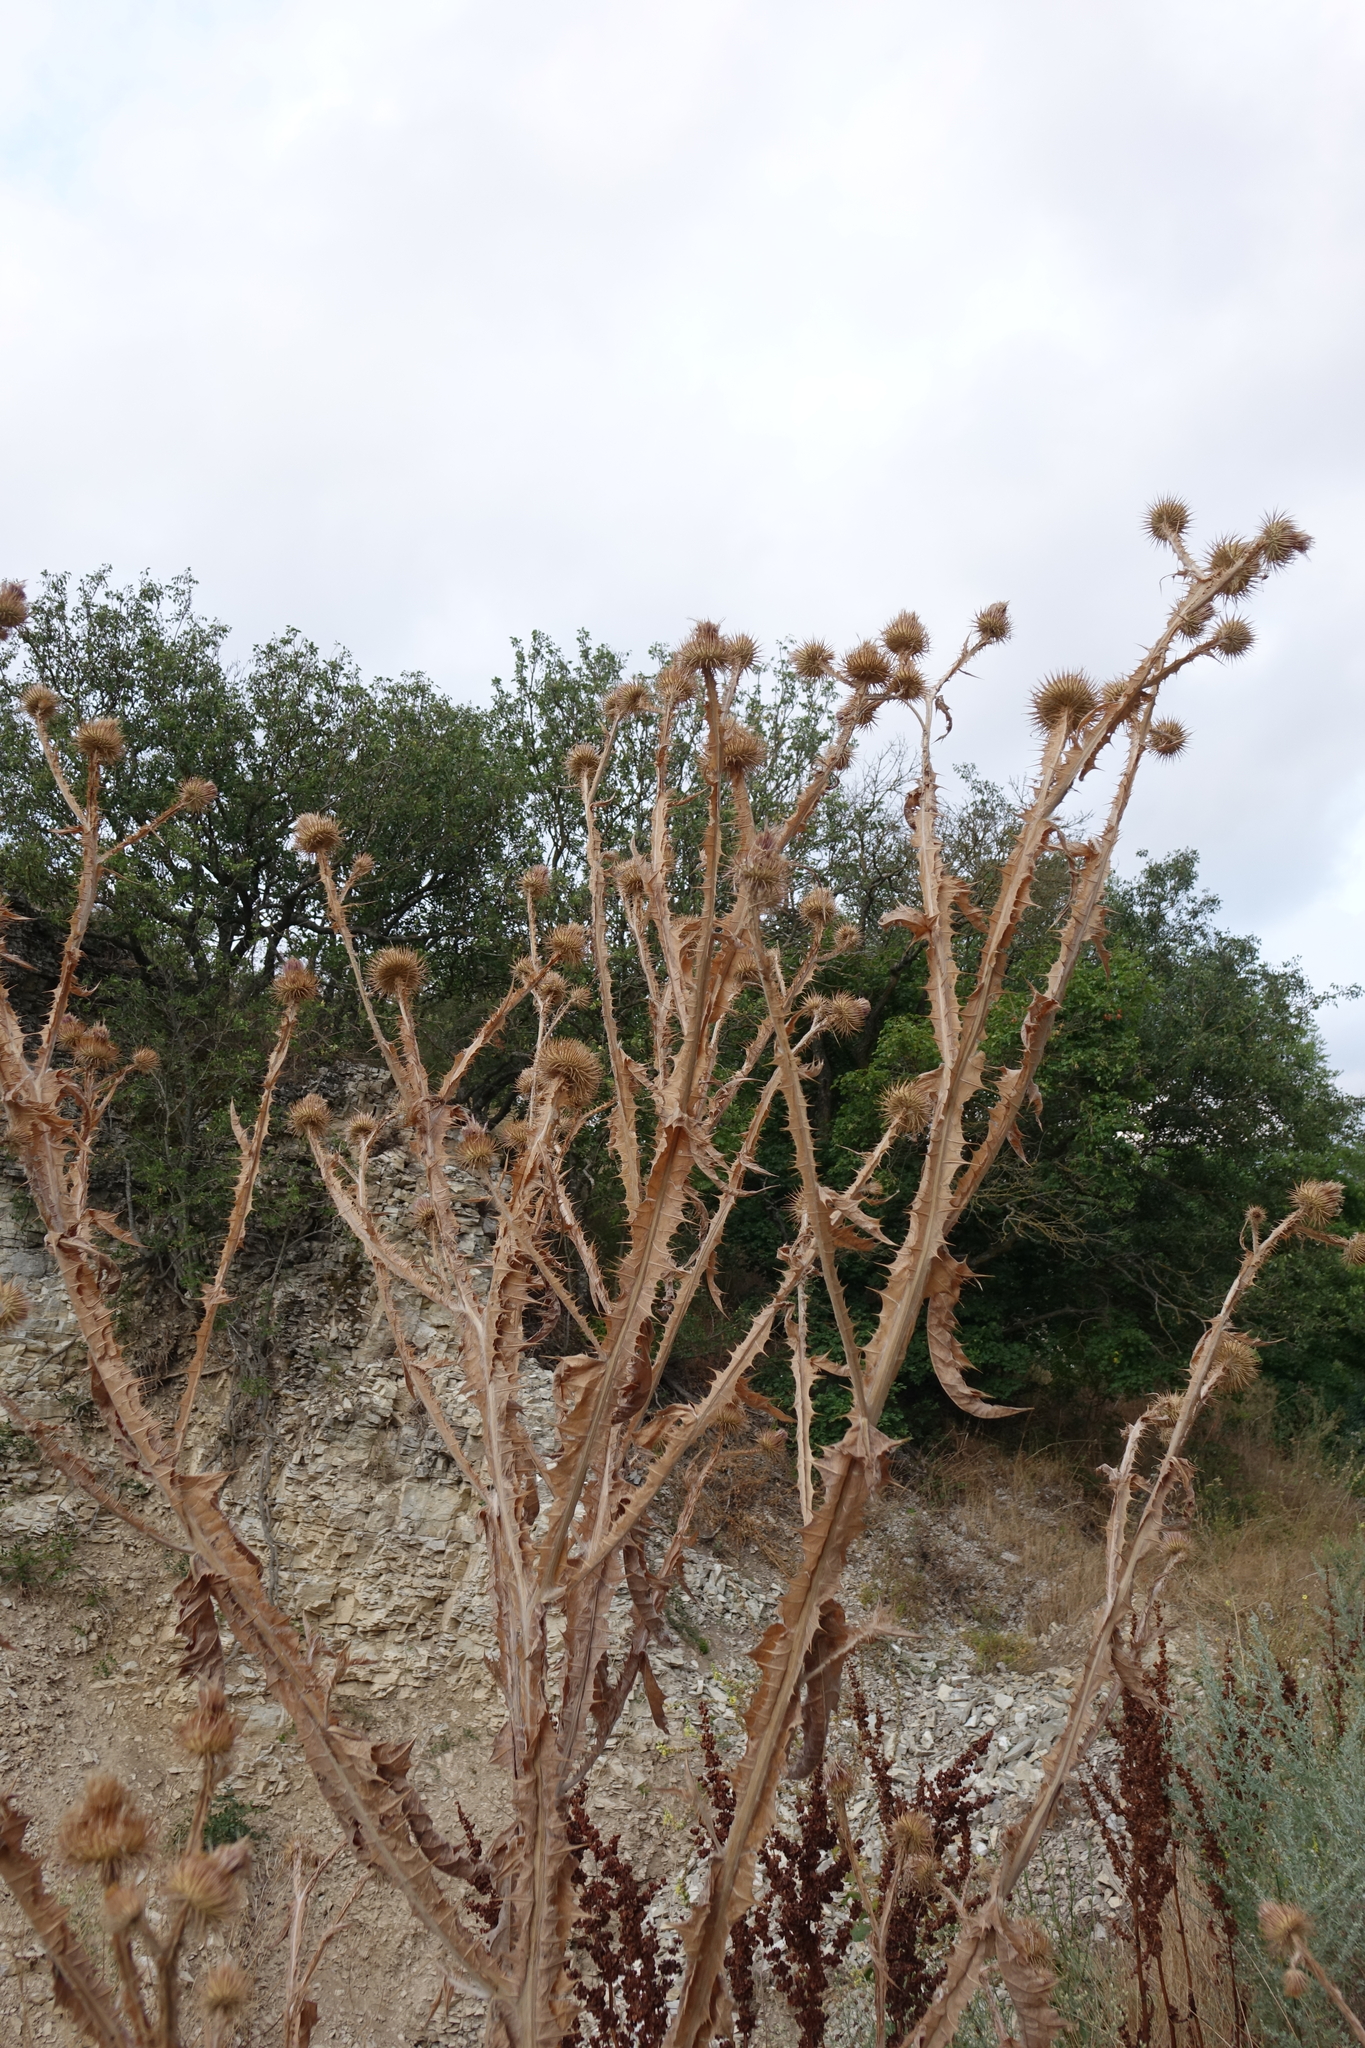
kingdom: Plantae
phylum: Tracheophyta
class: Magnoliopsida
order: Asterales
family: Asteraceae
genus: Carduus
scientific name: Carduus crispus
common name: Welted thistle
